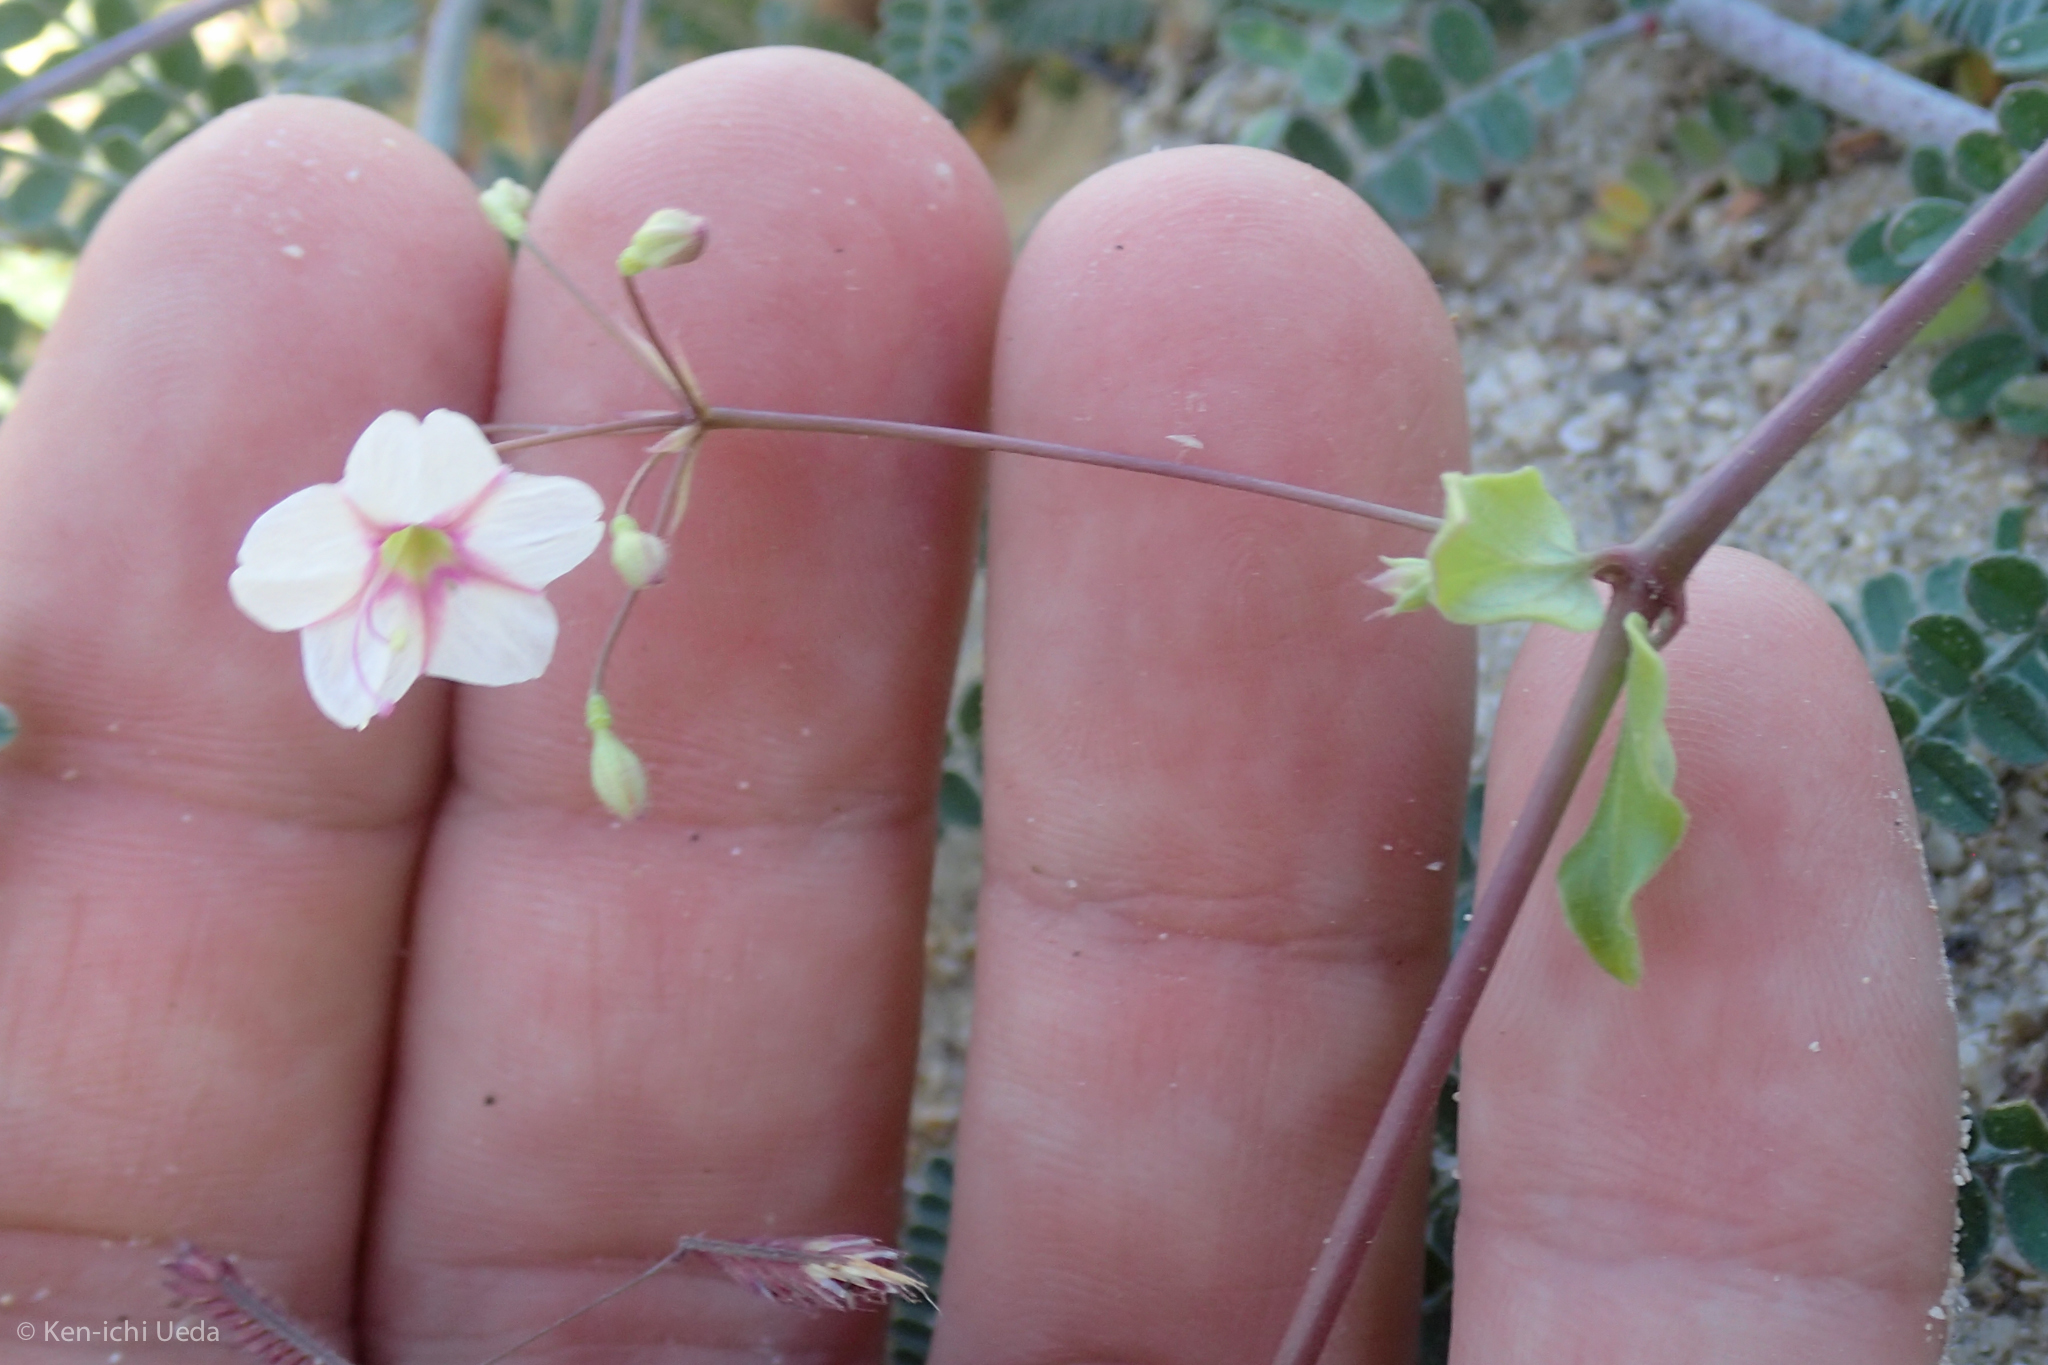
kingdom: Plantae
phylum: Tracheophyta
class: Magnoliopsida
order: Caryophyllales
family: Nyctaginaceae
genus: Commicarpus
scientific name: Commicarpus brandegeei
